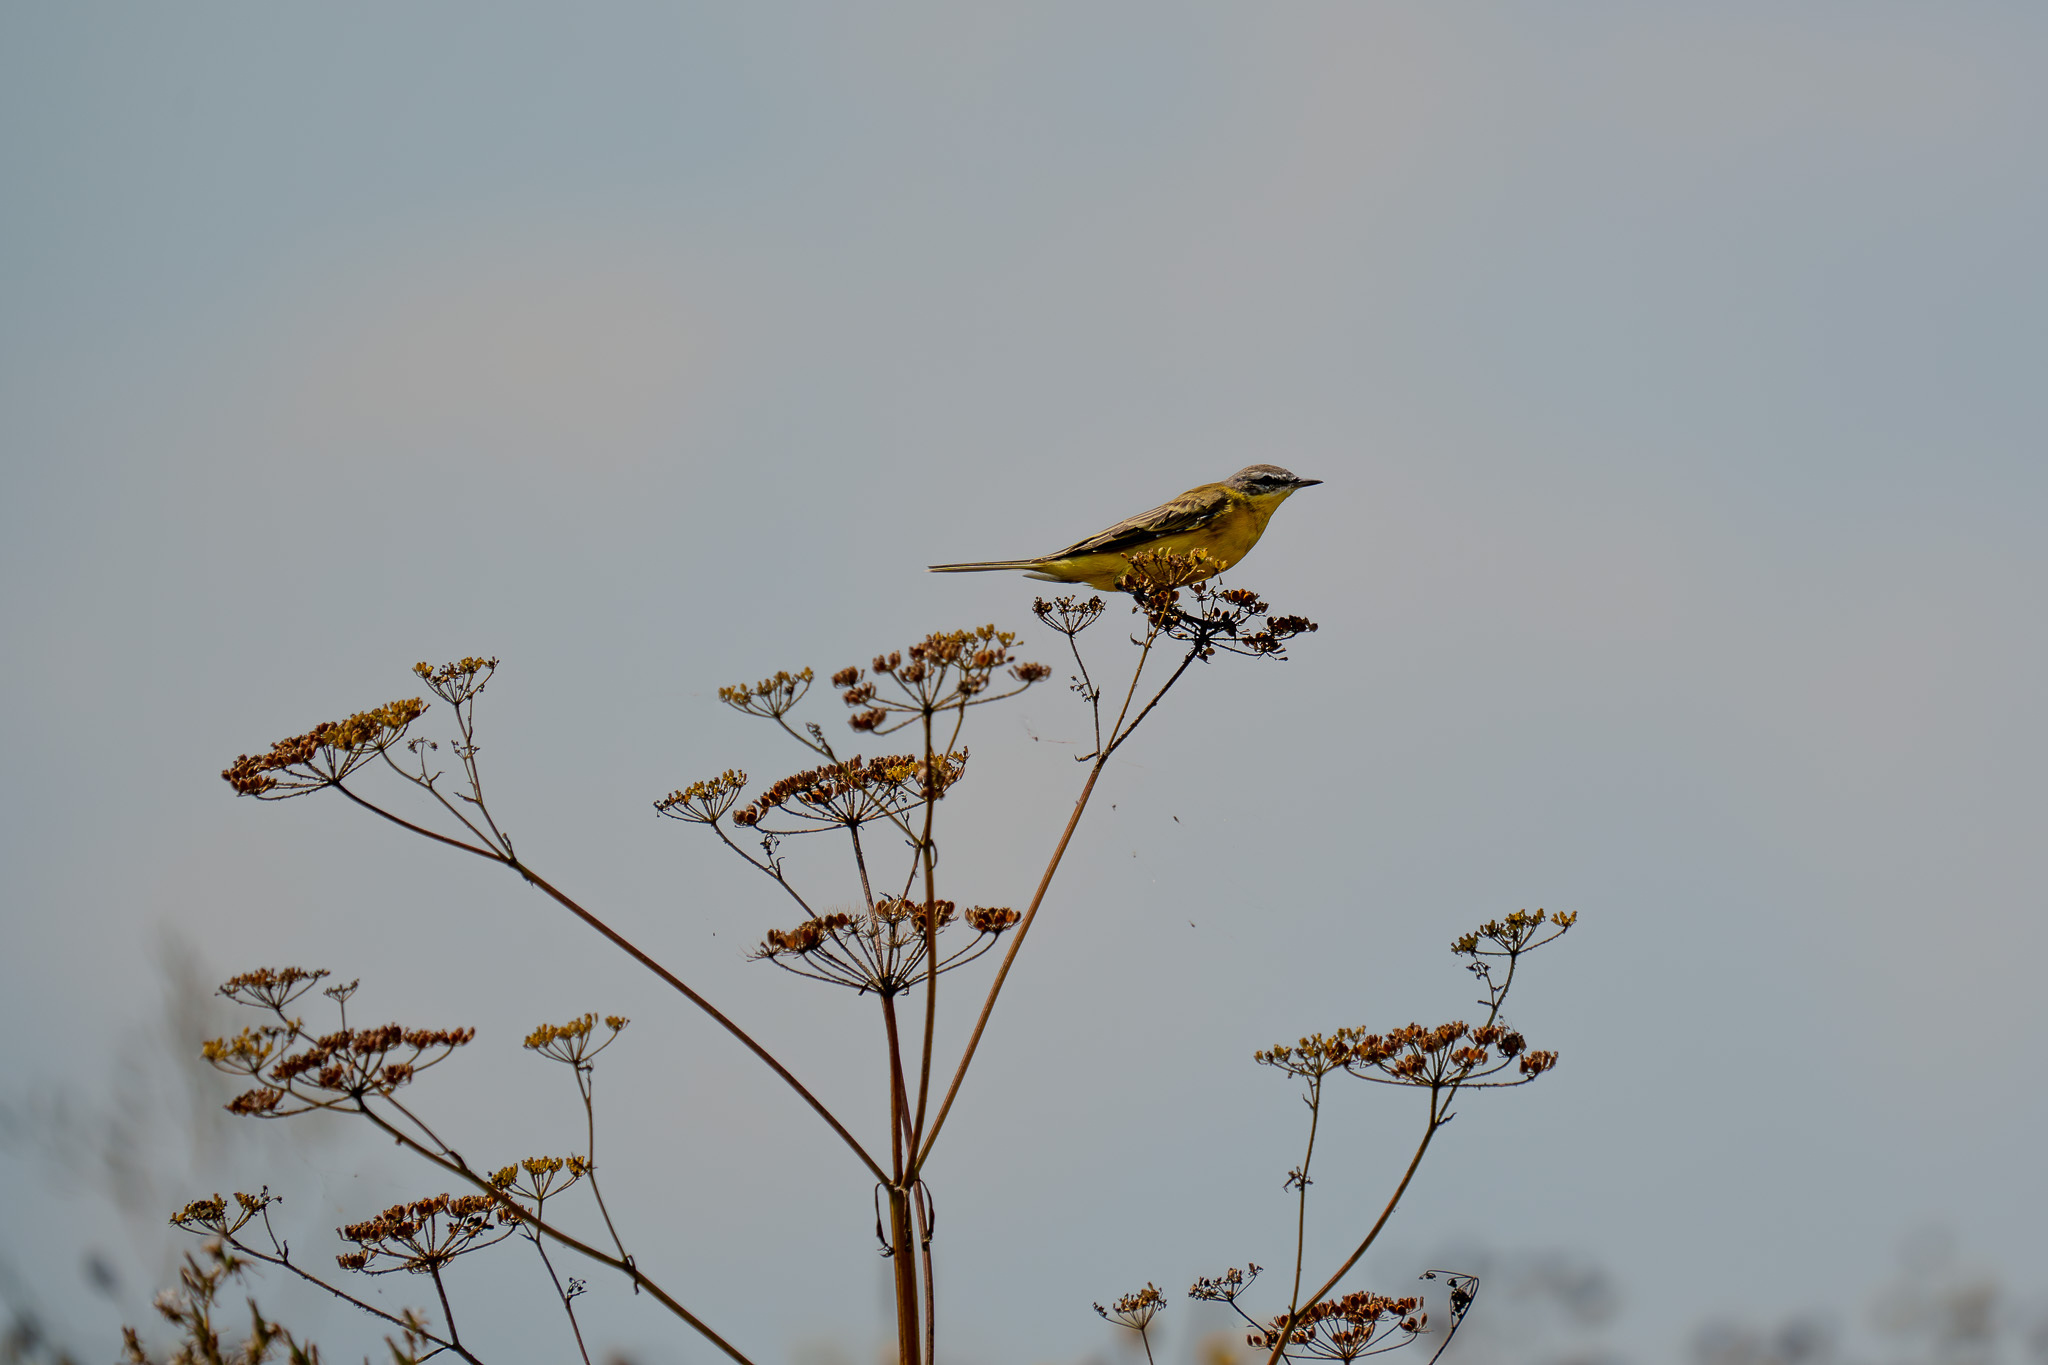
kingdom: Animalia
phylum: Chordata
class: Aves
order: Passeriformes
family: Motacillidae
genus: Motacilla
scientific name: Motacilla flava
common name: Western yellow wagtail
